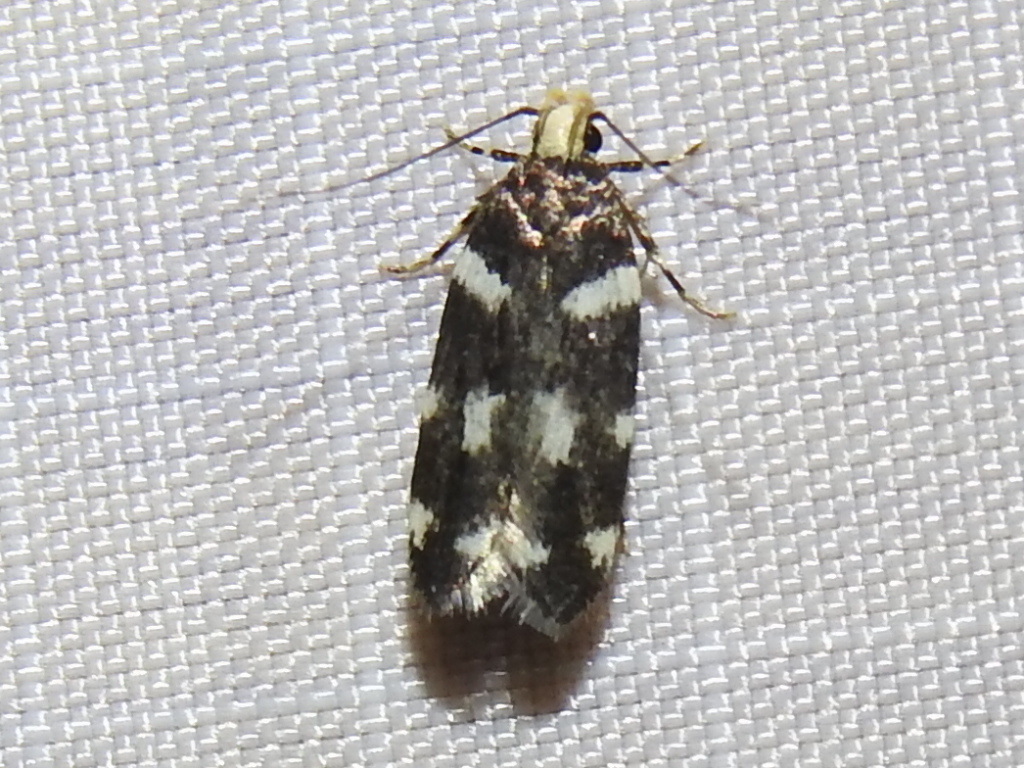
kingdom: Animalia
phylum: Arthropoda
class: Insecta
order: Lepidoptera
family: Gelechiidae
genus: Fascista
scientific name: Fascista quinella
